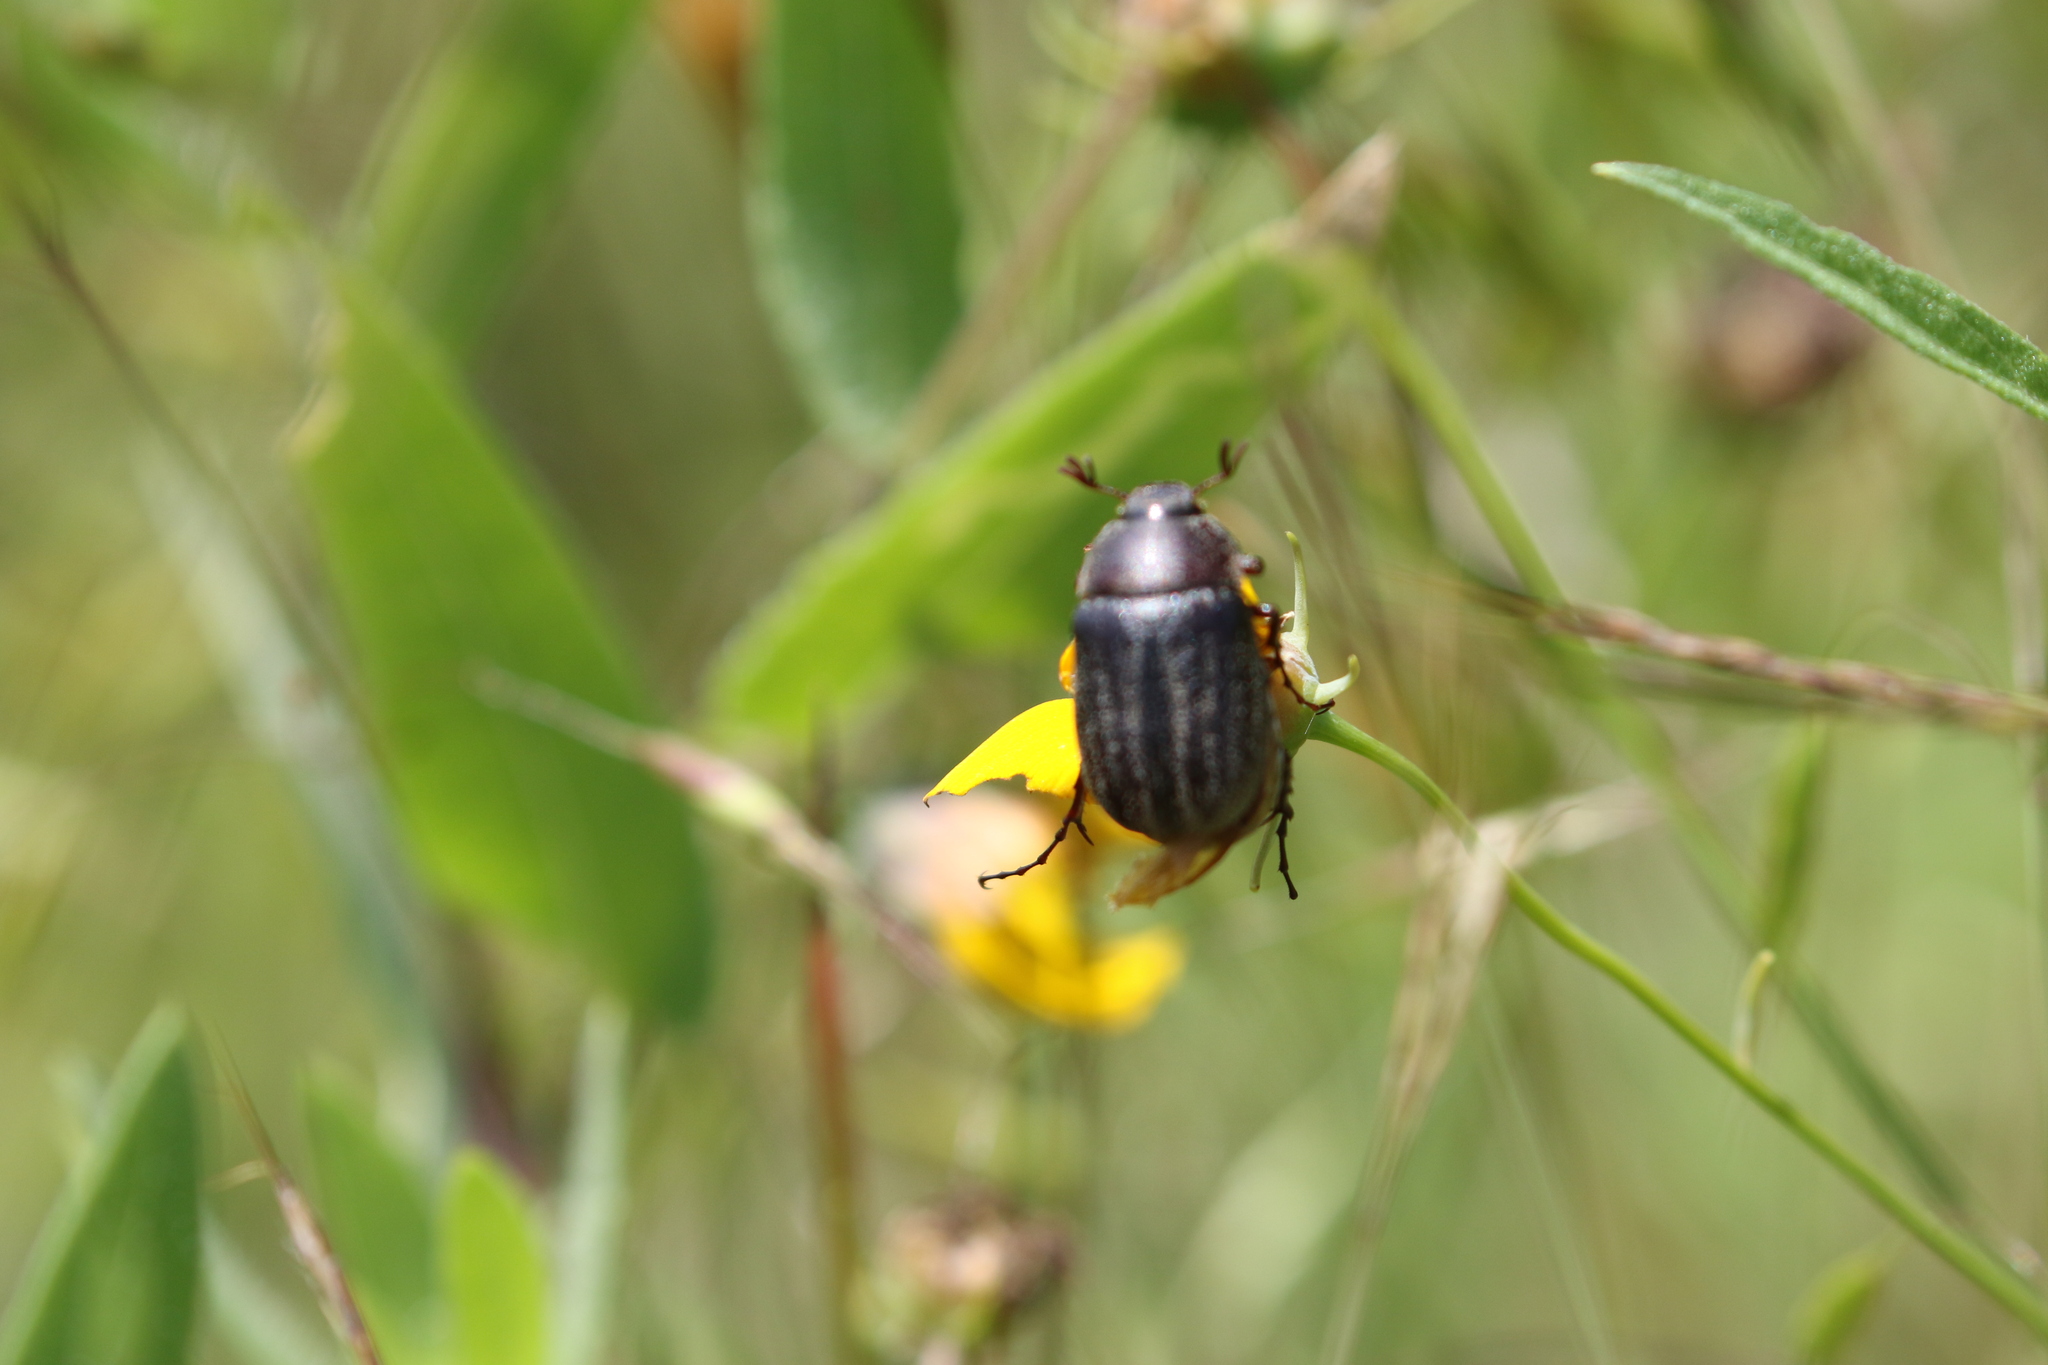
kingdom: Animalia
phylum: Arthropoda
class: Insecta
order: Coleoptera
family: Scarabaeidae
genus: Phyllophaga
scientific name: Phyllophaga lanceolata
